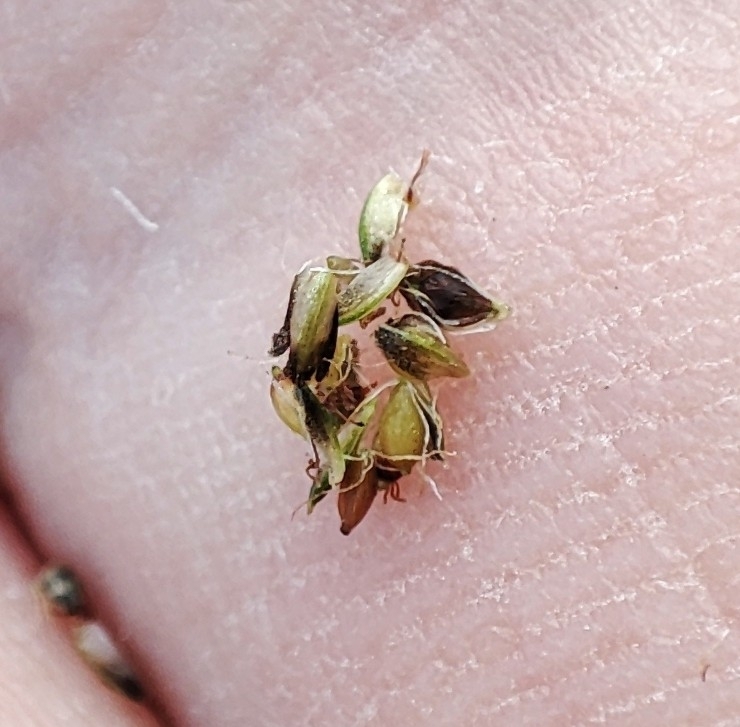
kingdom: Plantae
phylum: Tracheophyta
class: Liliopsida
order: Poales
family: Cyperaceae
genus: Scirpus
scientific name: Scirpus sylvaticus
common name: Wood club-rush
